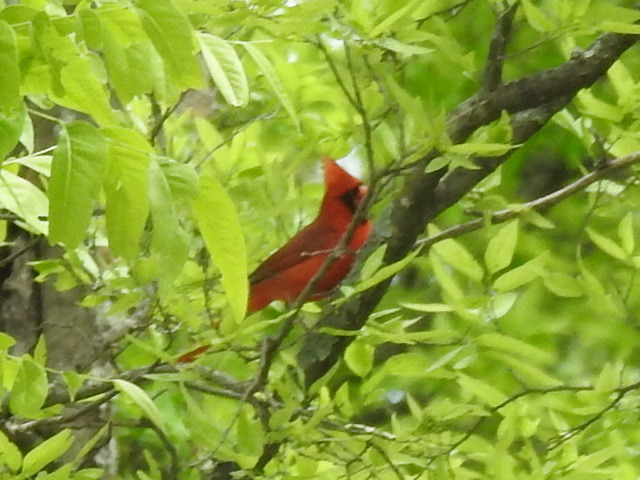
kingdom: Animalia
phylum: Chordata
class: Aves
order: Passeriformes
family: Cardinalidae
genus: Cardinalis
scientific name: Cardinalis cardinalis
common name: Northern cardinal
